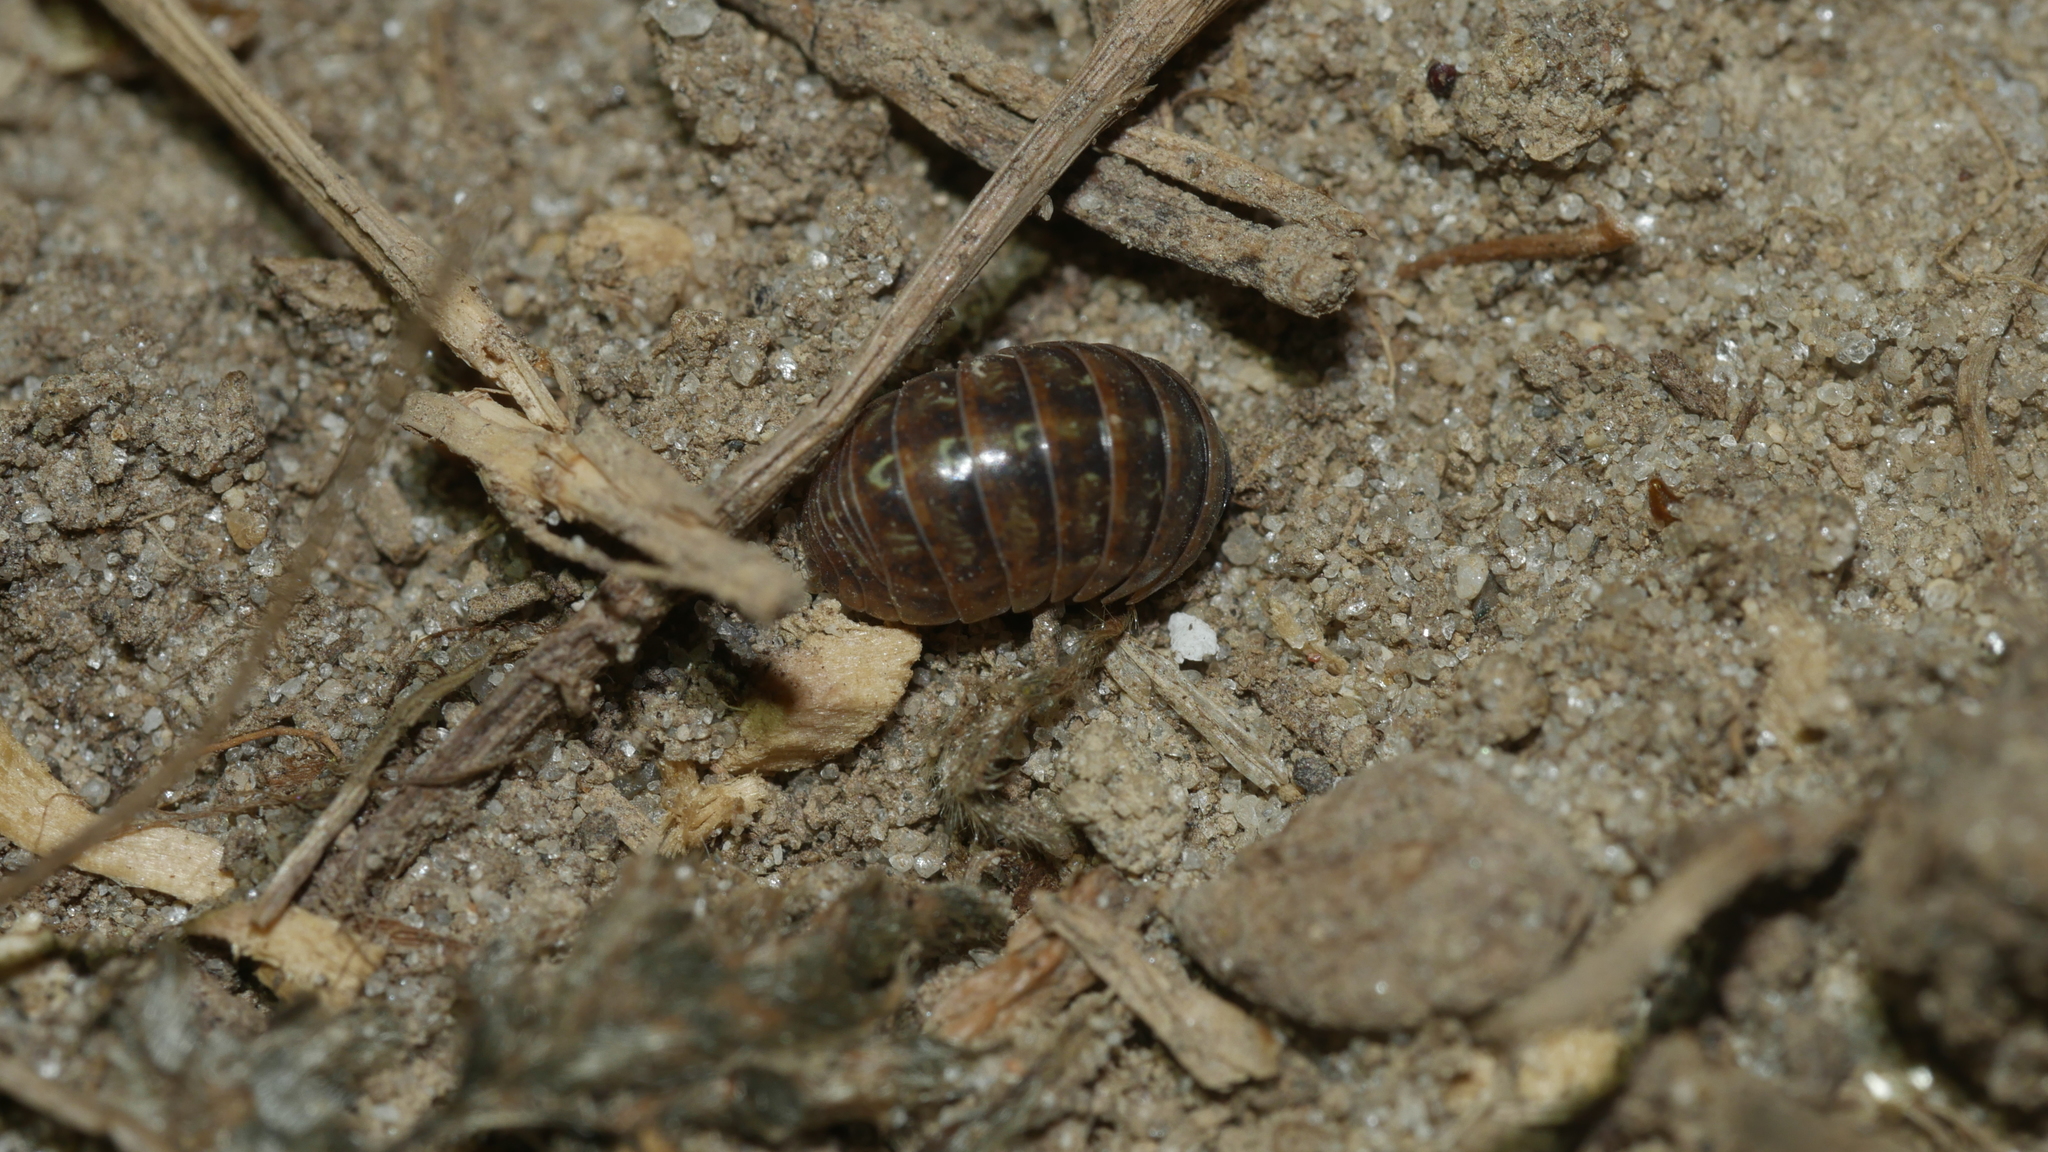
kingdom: Animalia
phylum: Arthropoda
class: Malacostraca
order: Isopoda
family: Armadillidiidae
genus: Armadillidium
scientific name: Armadillidium vulgare
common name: Common pill woodlouse
